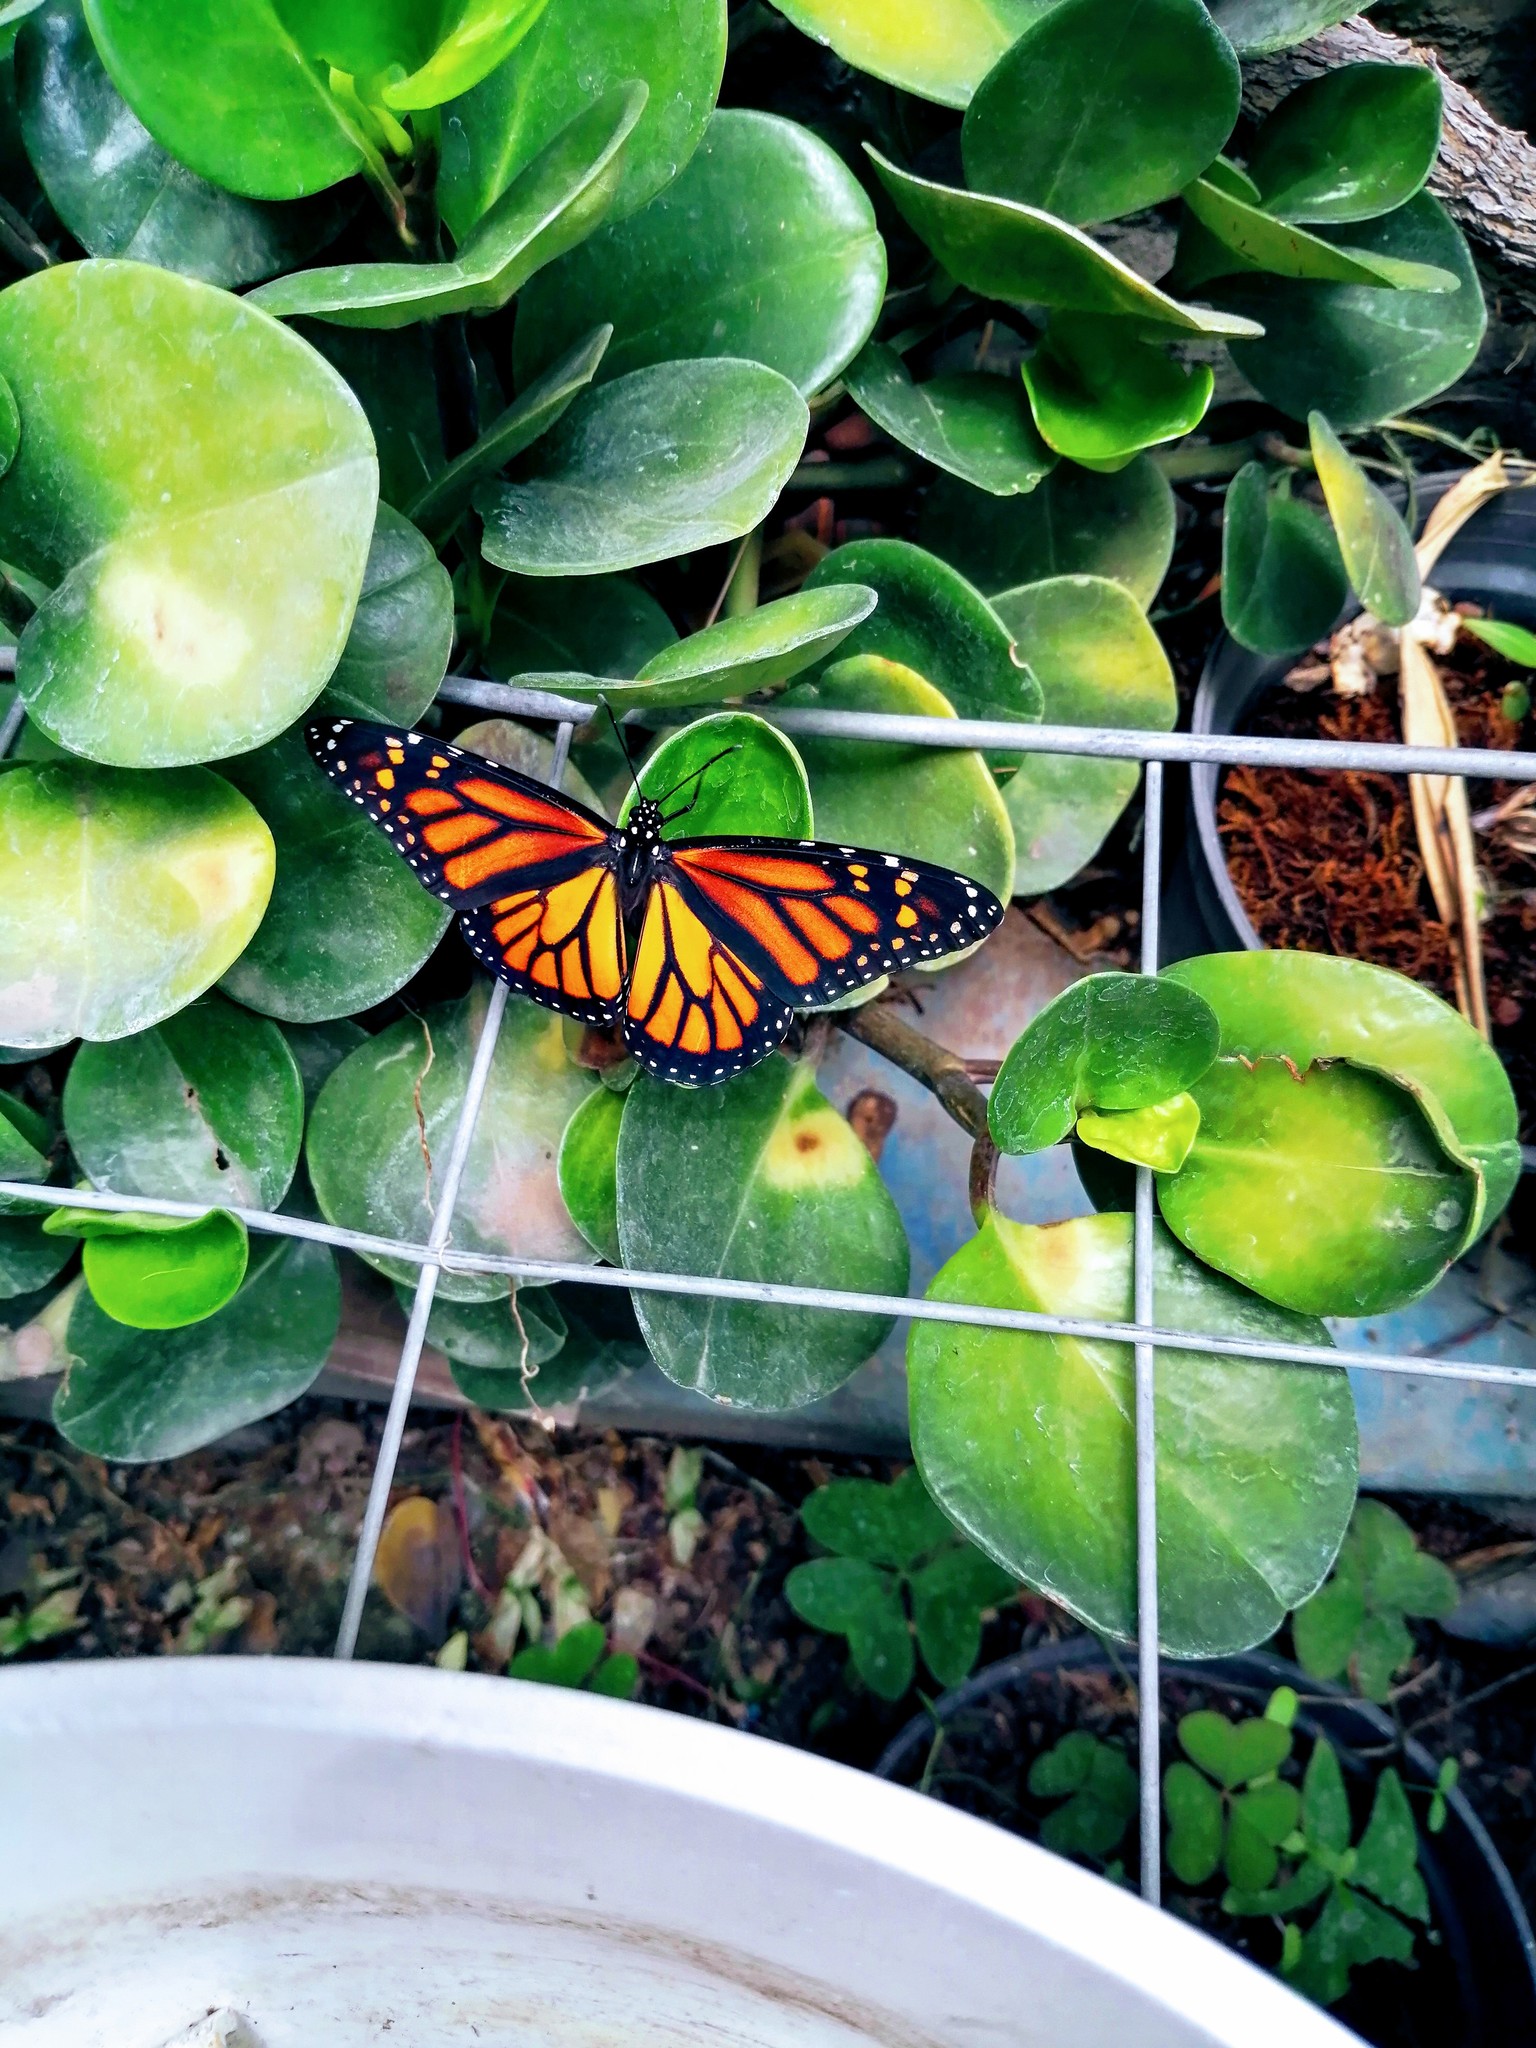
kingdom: Animalia
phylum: Arthropoda
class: Insecta
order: Lepidoptera
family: Nymphalidae
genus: Danaus
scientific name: Danaus plexippus
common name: Monarch
